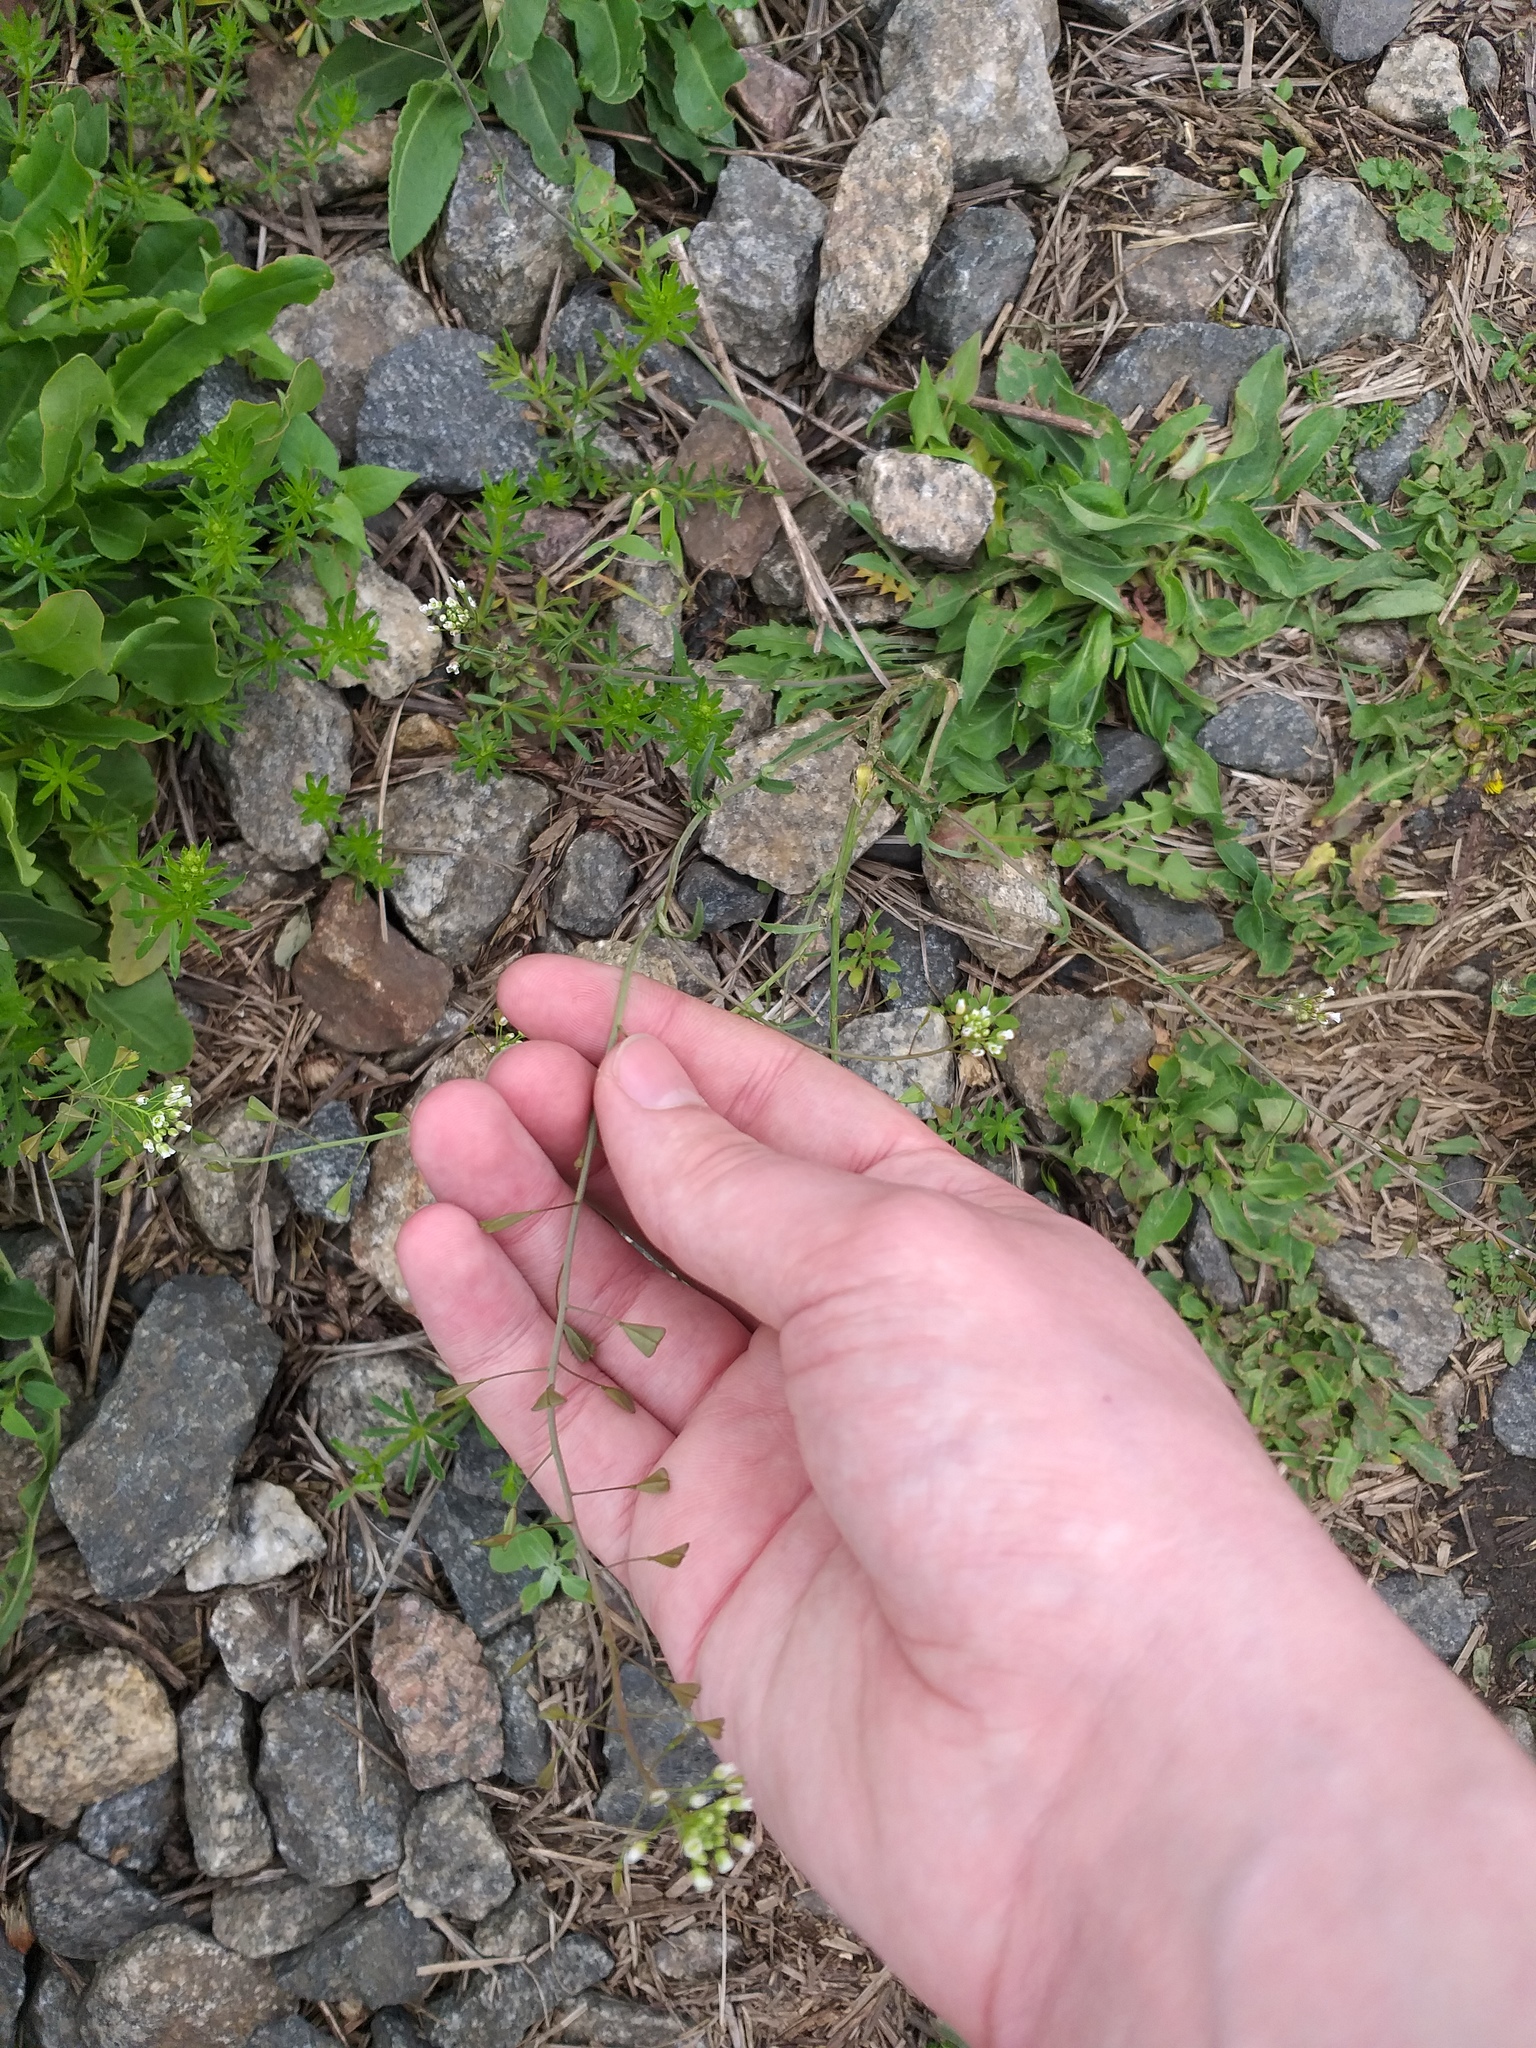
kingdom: Plantae
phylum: Tracheophyta
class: Magnoliopsida
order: Brassicales
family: Brassicaceae
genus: Capsella
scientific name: Capsella bursa-pastoris
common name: Shepherd's purse
